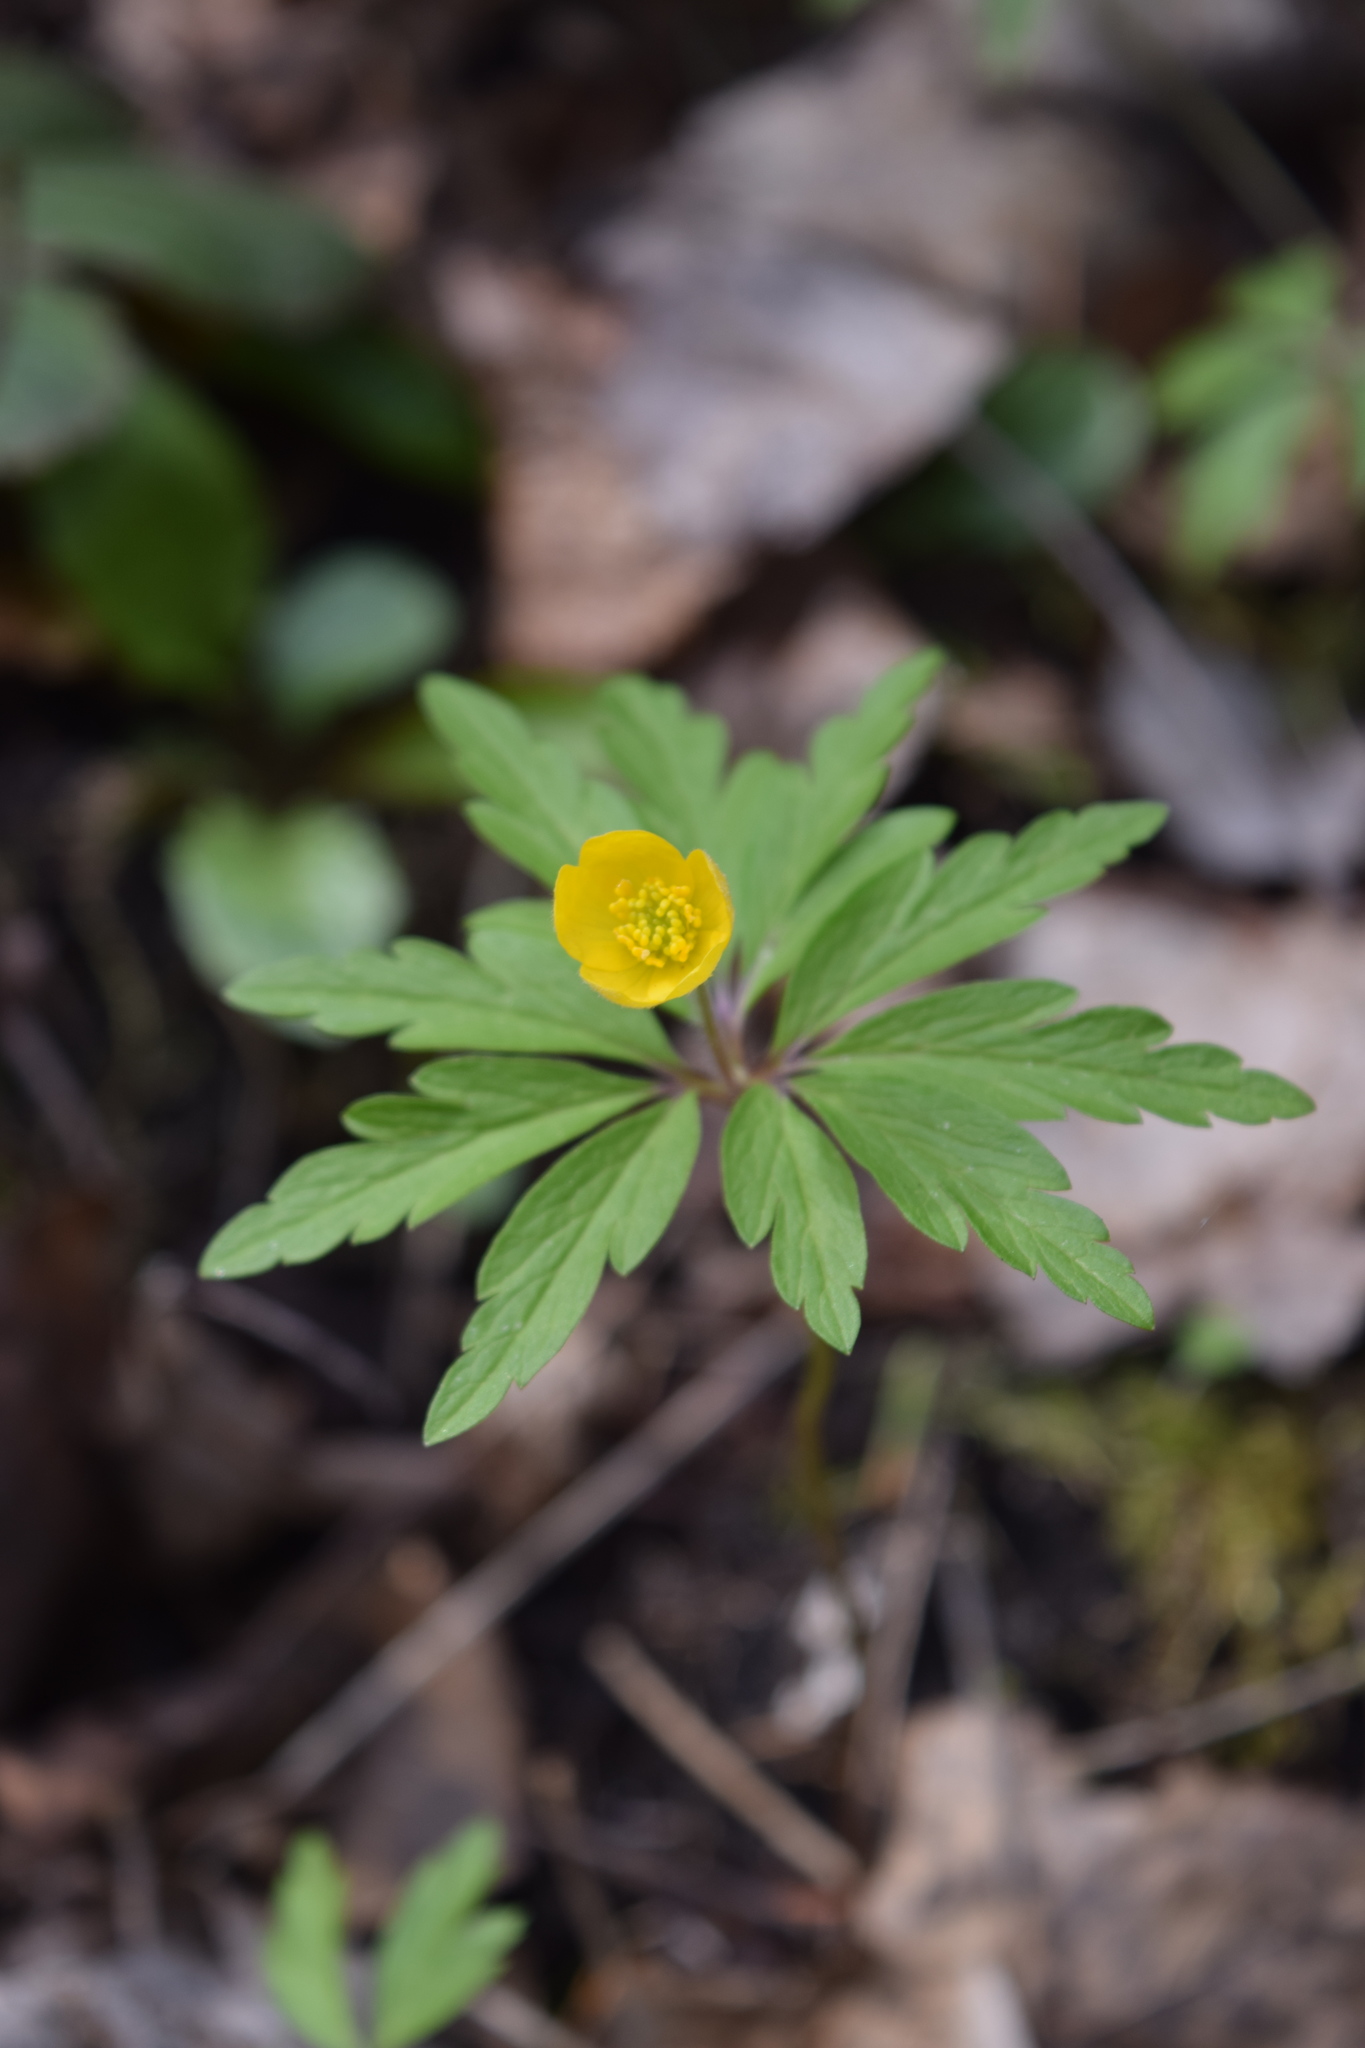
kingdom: Plantae
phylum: Tracheophyta
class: Magnoliopsida
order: Ranunculales
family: Ranunculaceae
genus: Anemone
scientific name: Anemone ranunculoides
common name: Yellow anemone
